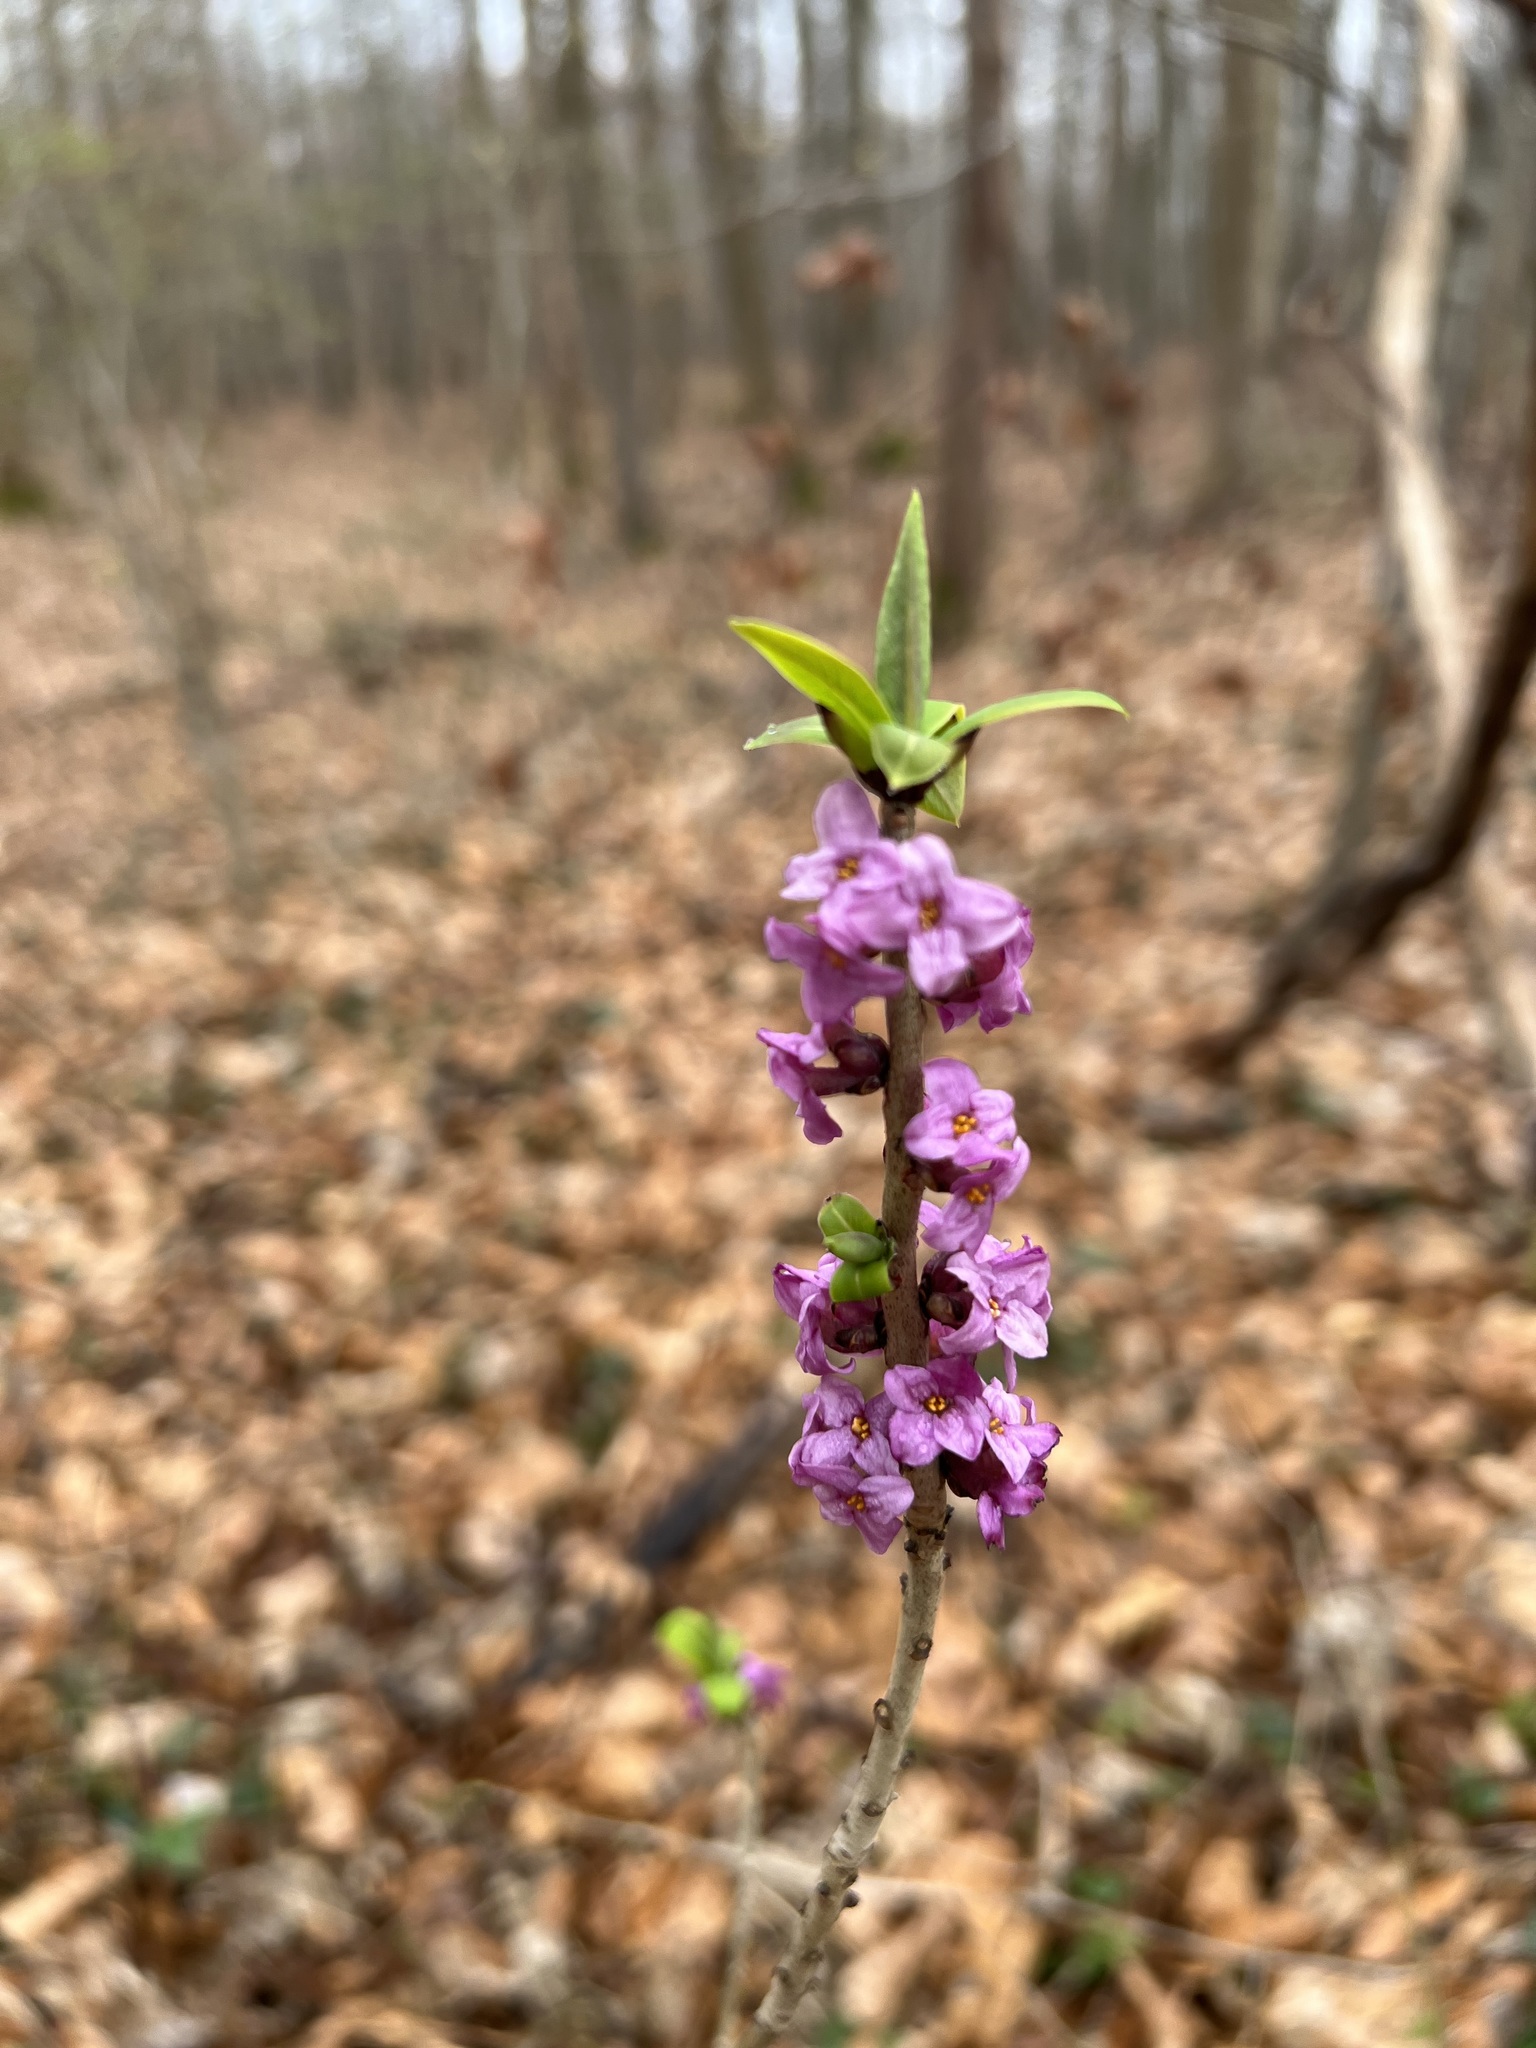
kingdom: Plantae
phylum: Tracheophyta
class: Magnoliopsida
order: Malvales
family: Thymelaeaceae
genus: Daphne
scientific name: Daphne mezereum
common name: Mezereon
